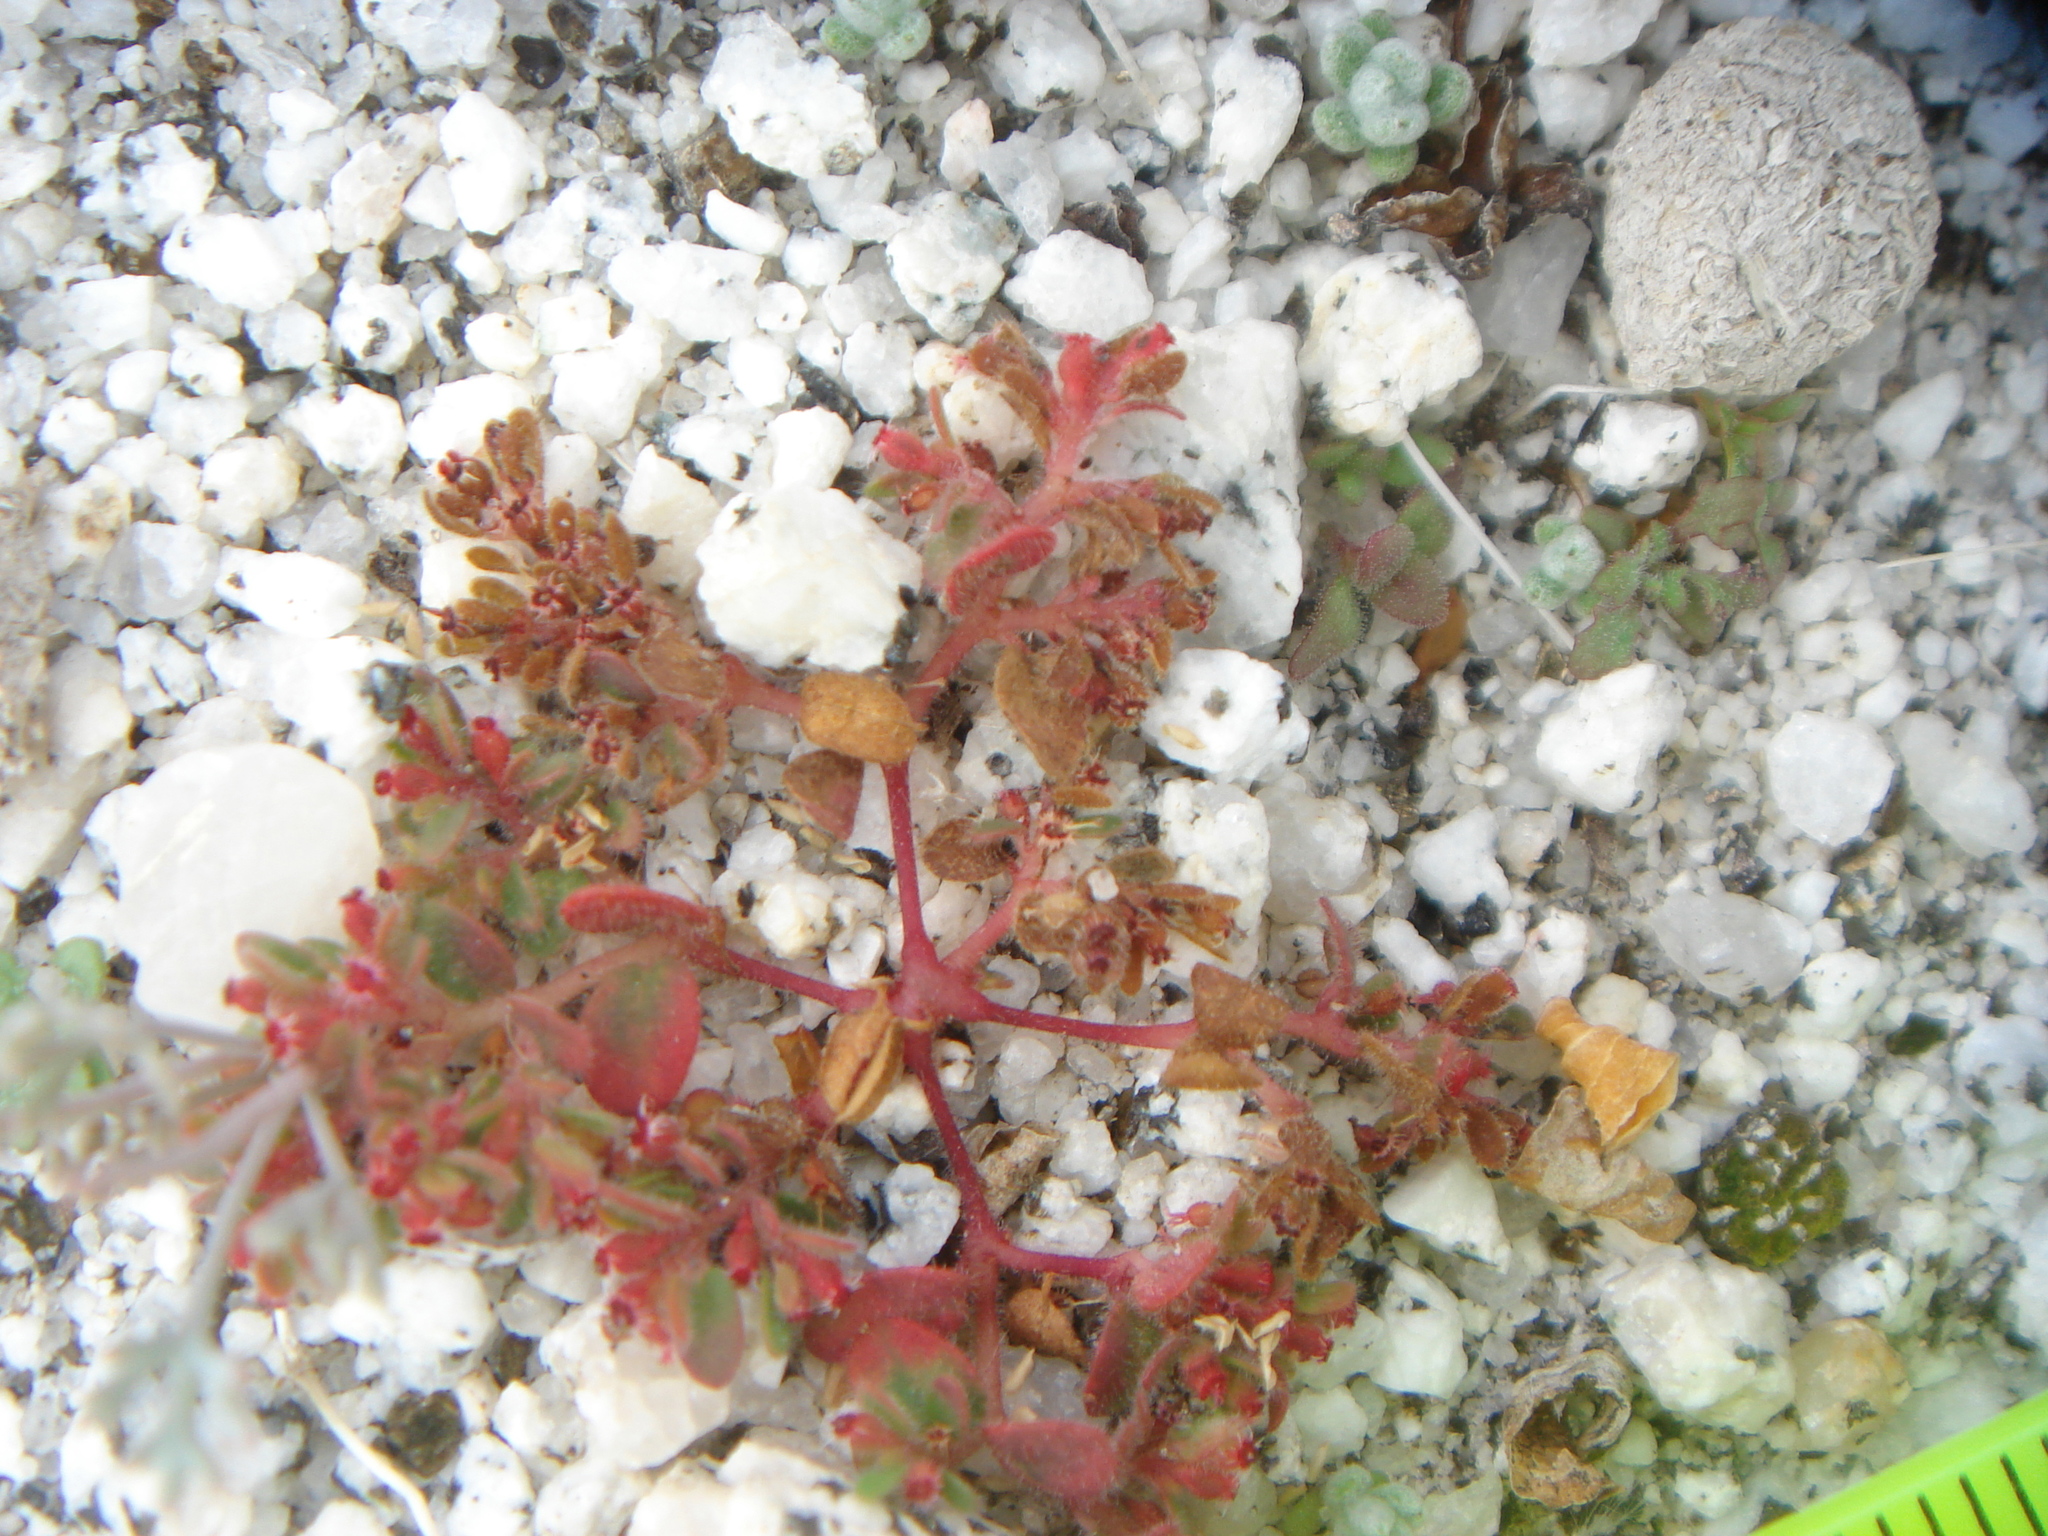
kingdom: Plantae
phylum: Tracheophyta
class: Magnoliopsida
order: Malpighiales
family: Euphorbiaceae
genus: Euphorbia
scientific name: Euphorbia setiloba
